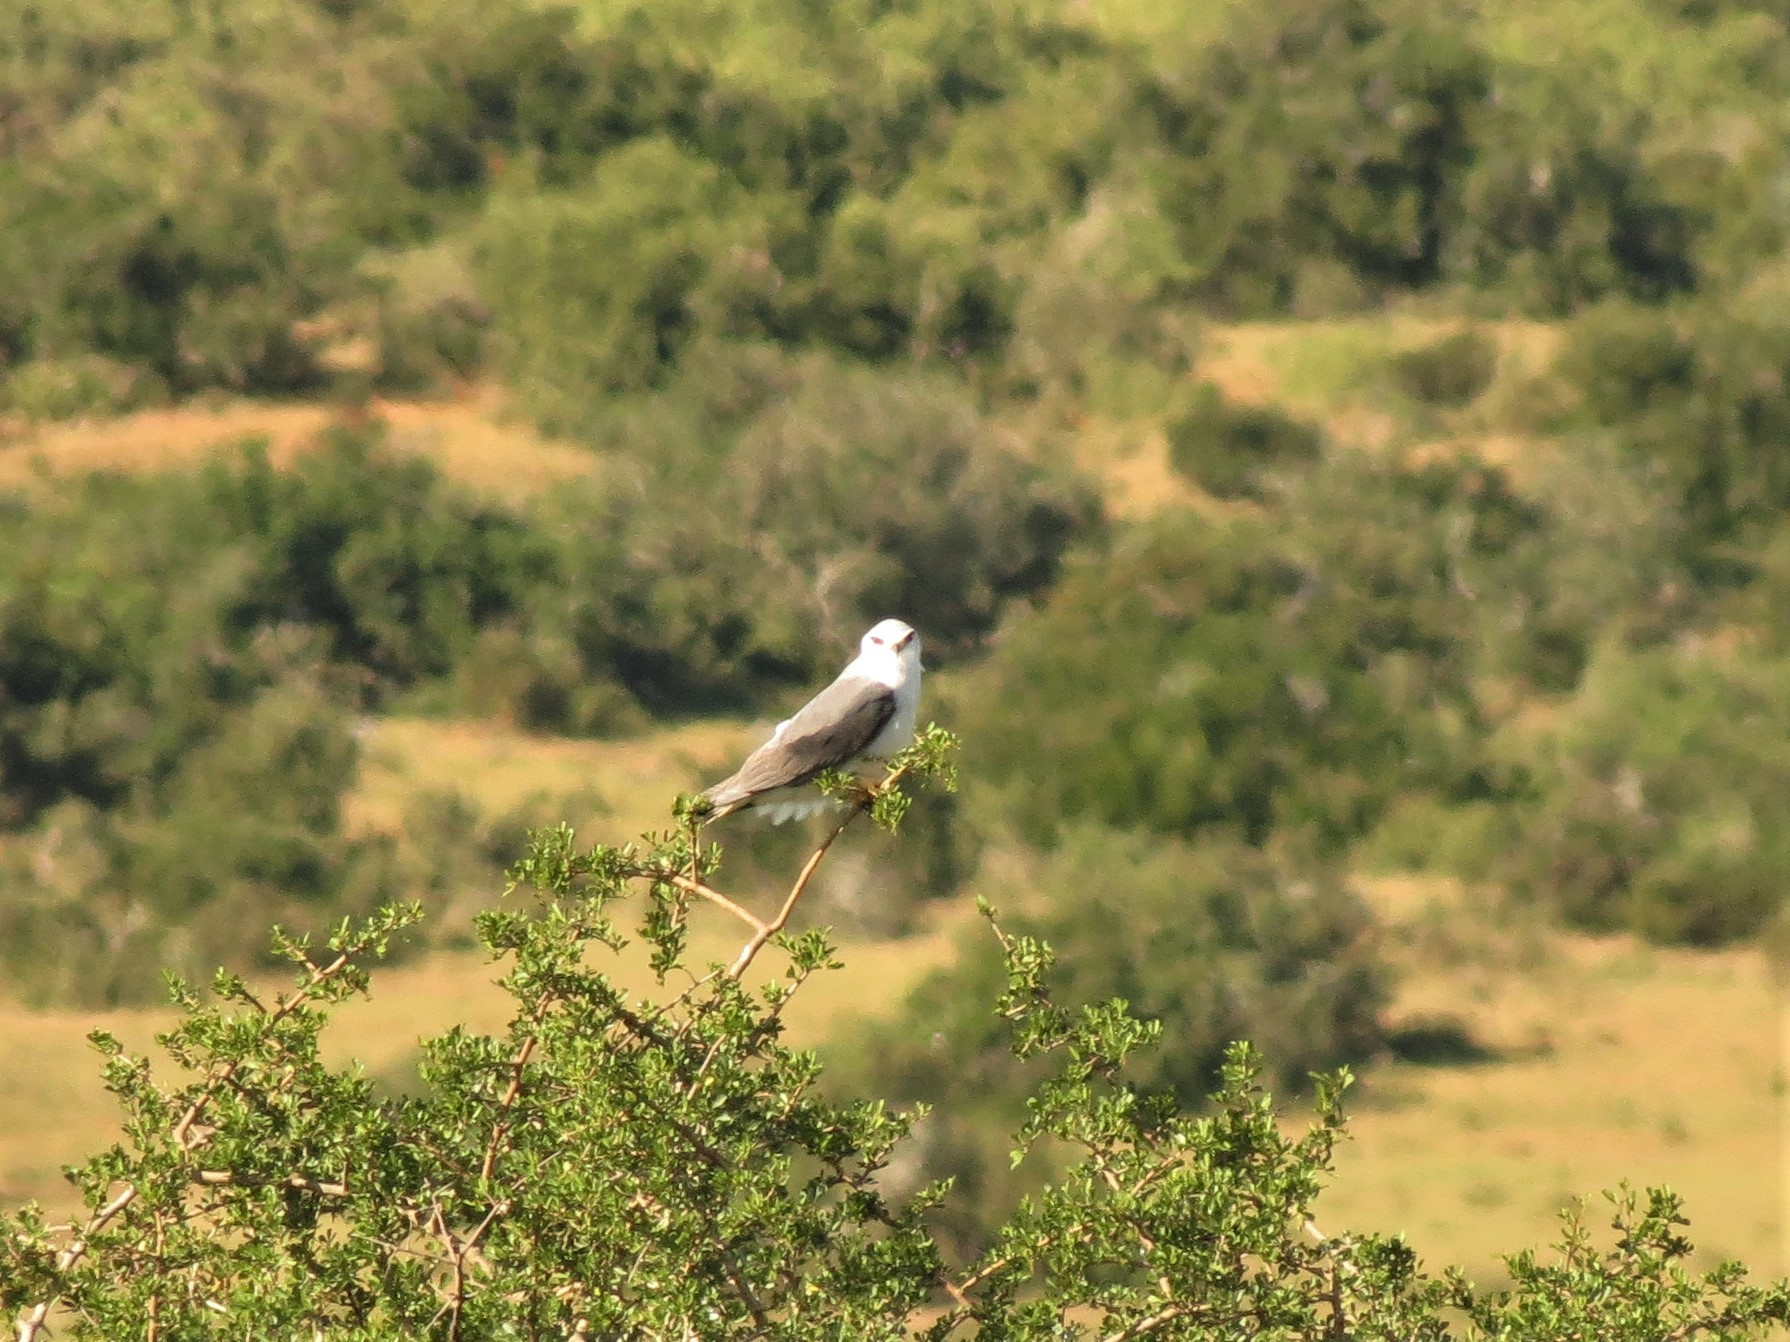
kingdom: Animalia
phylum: Chordata
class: Aves
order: Accipitriformes
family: Accipitridae
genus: Elanus
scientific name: Elanus caeruleus
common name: Black-winged kite
